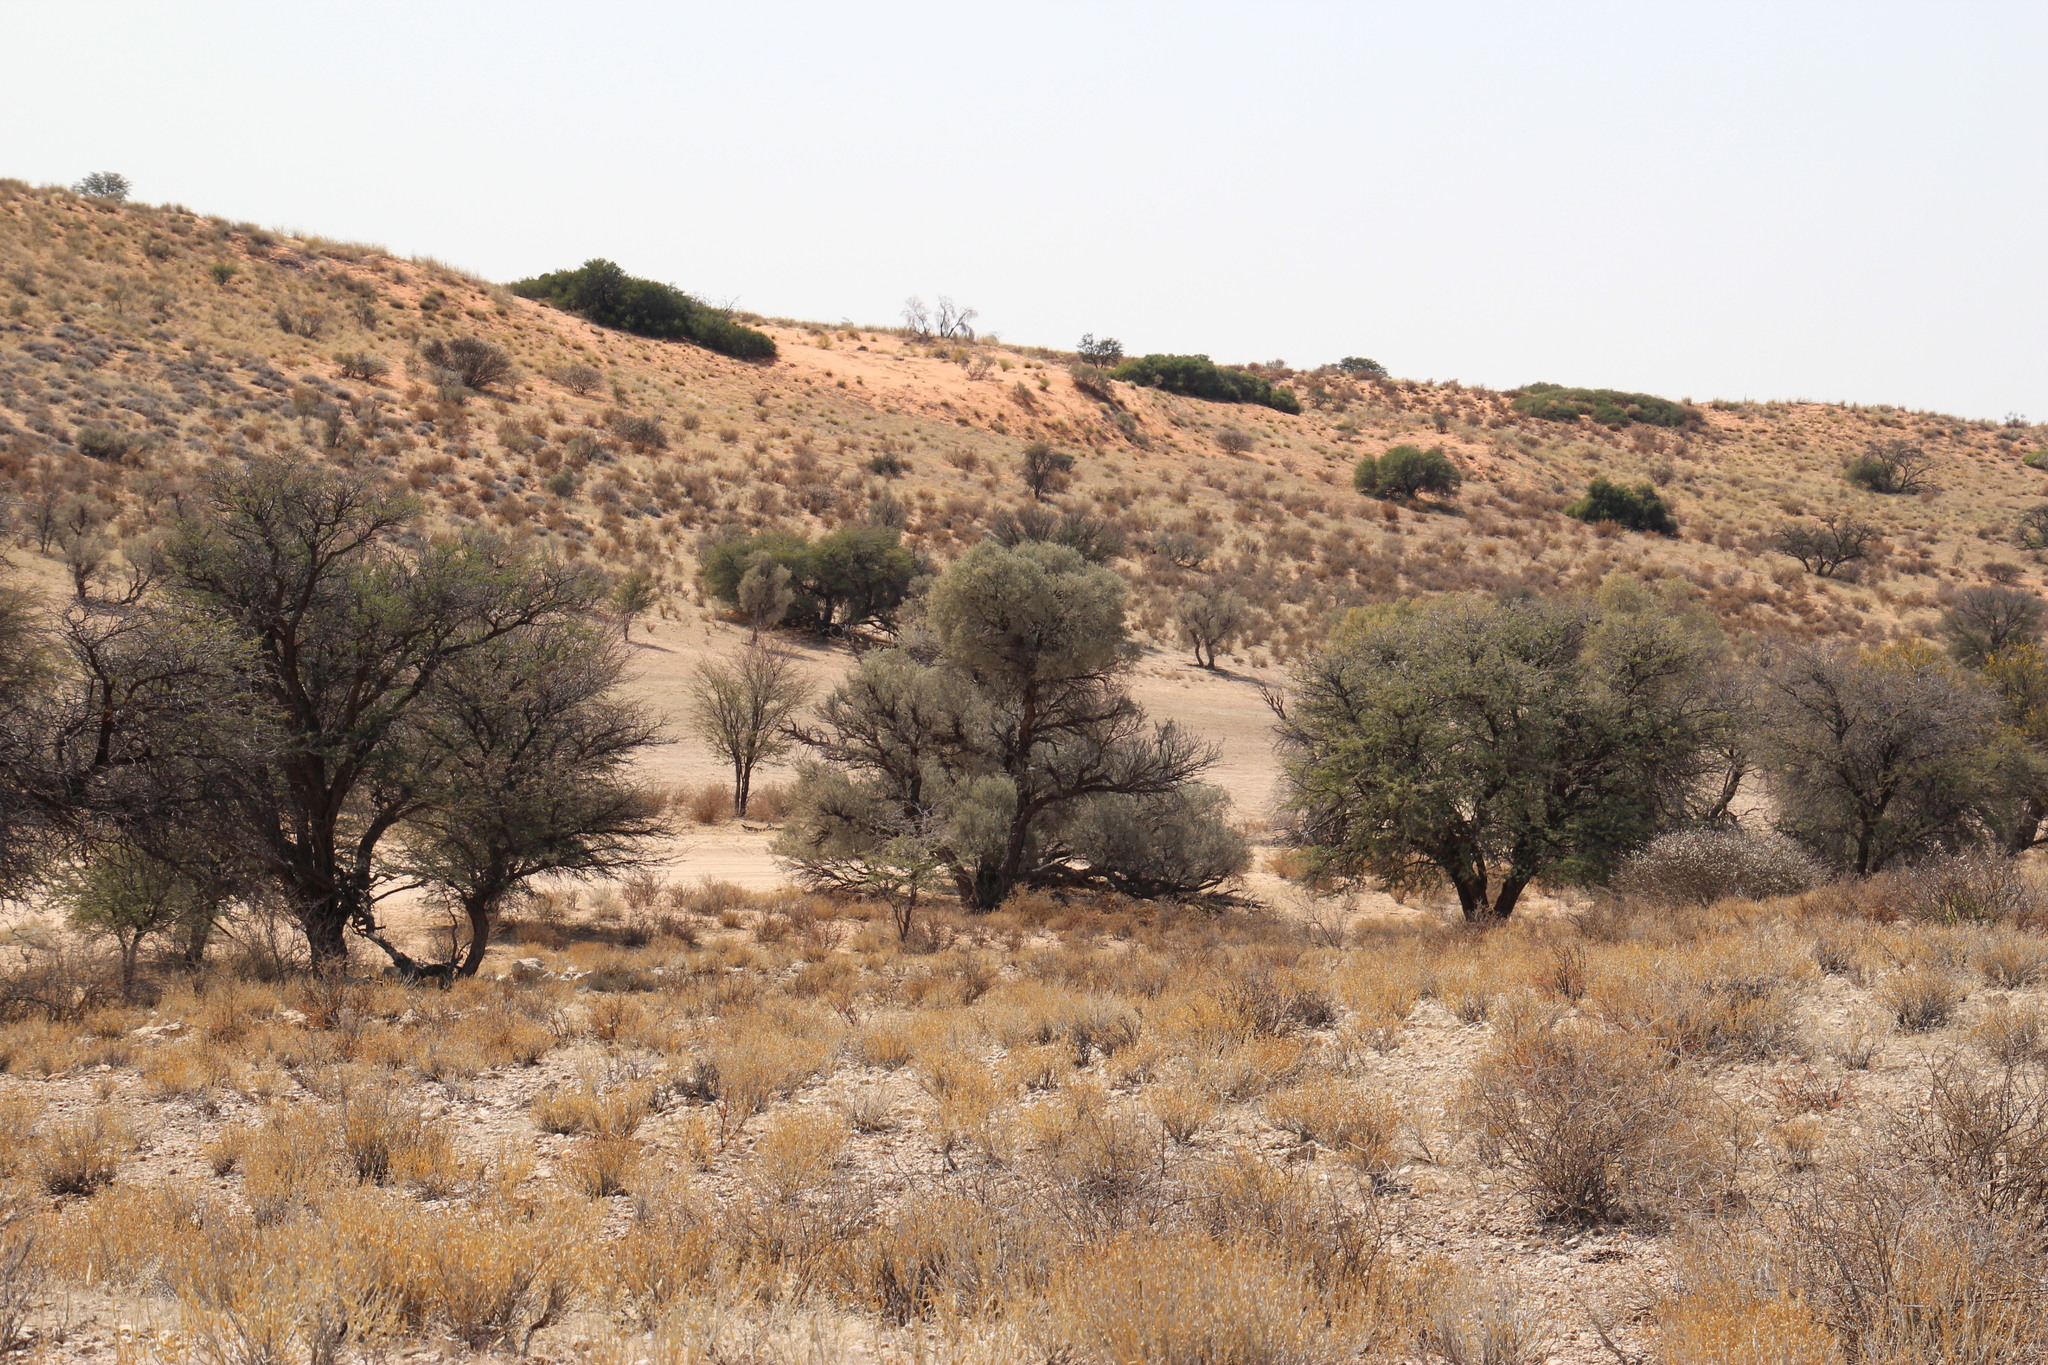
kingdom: Plantae
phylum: Tracheophyta
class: Magnoliopsida
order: Fabales
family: Fabaceae
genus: Vachellia
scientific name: Vachellia haematoxylon
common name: Grey camel thorn
